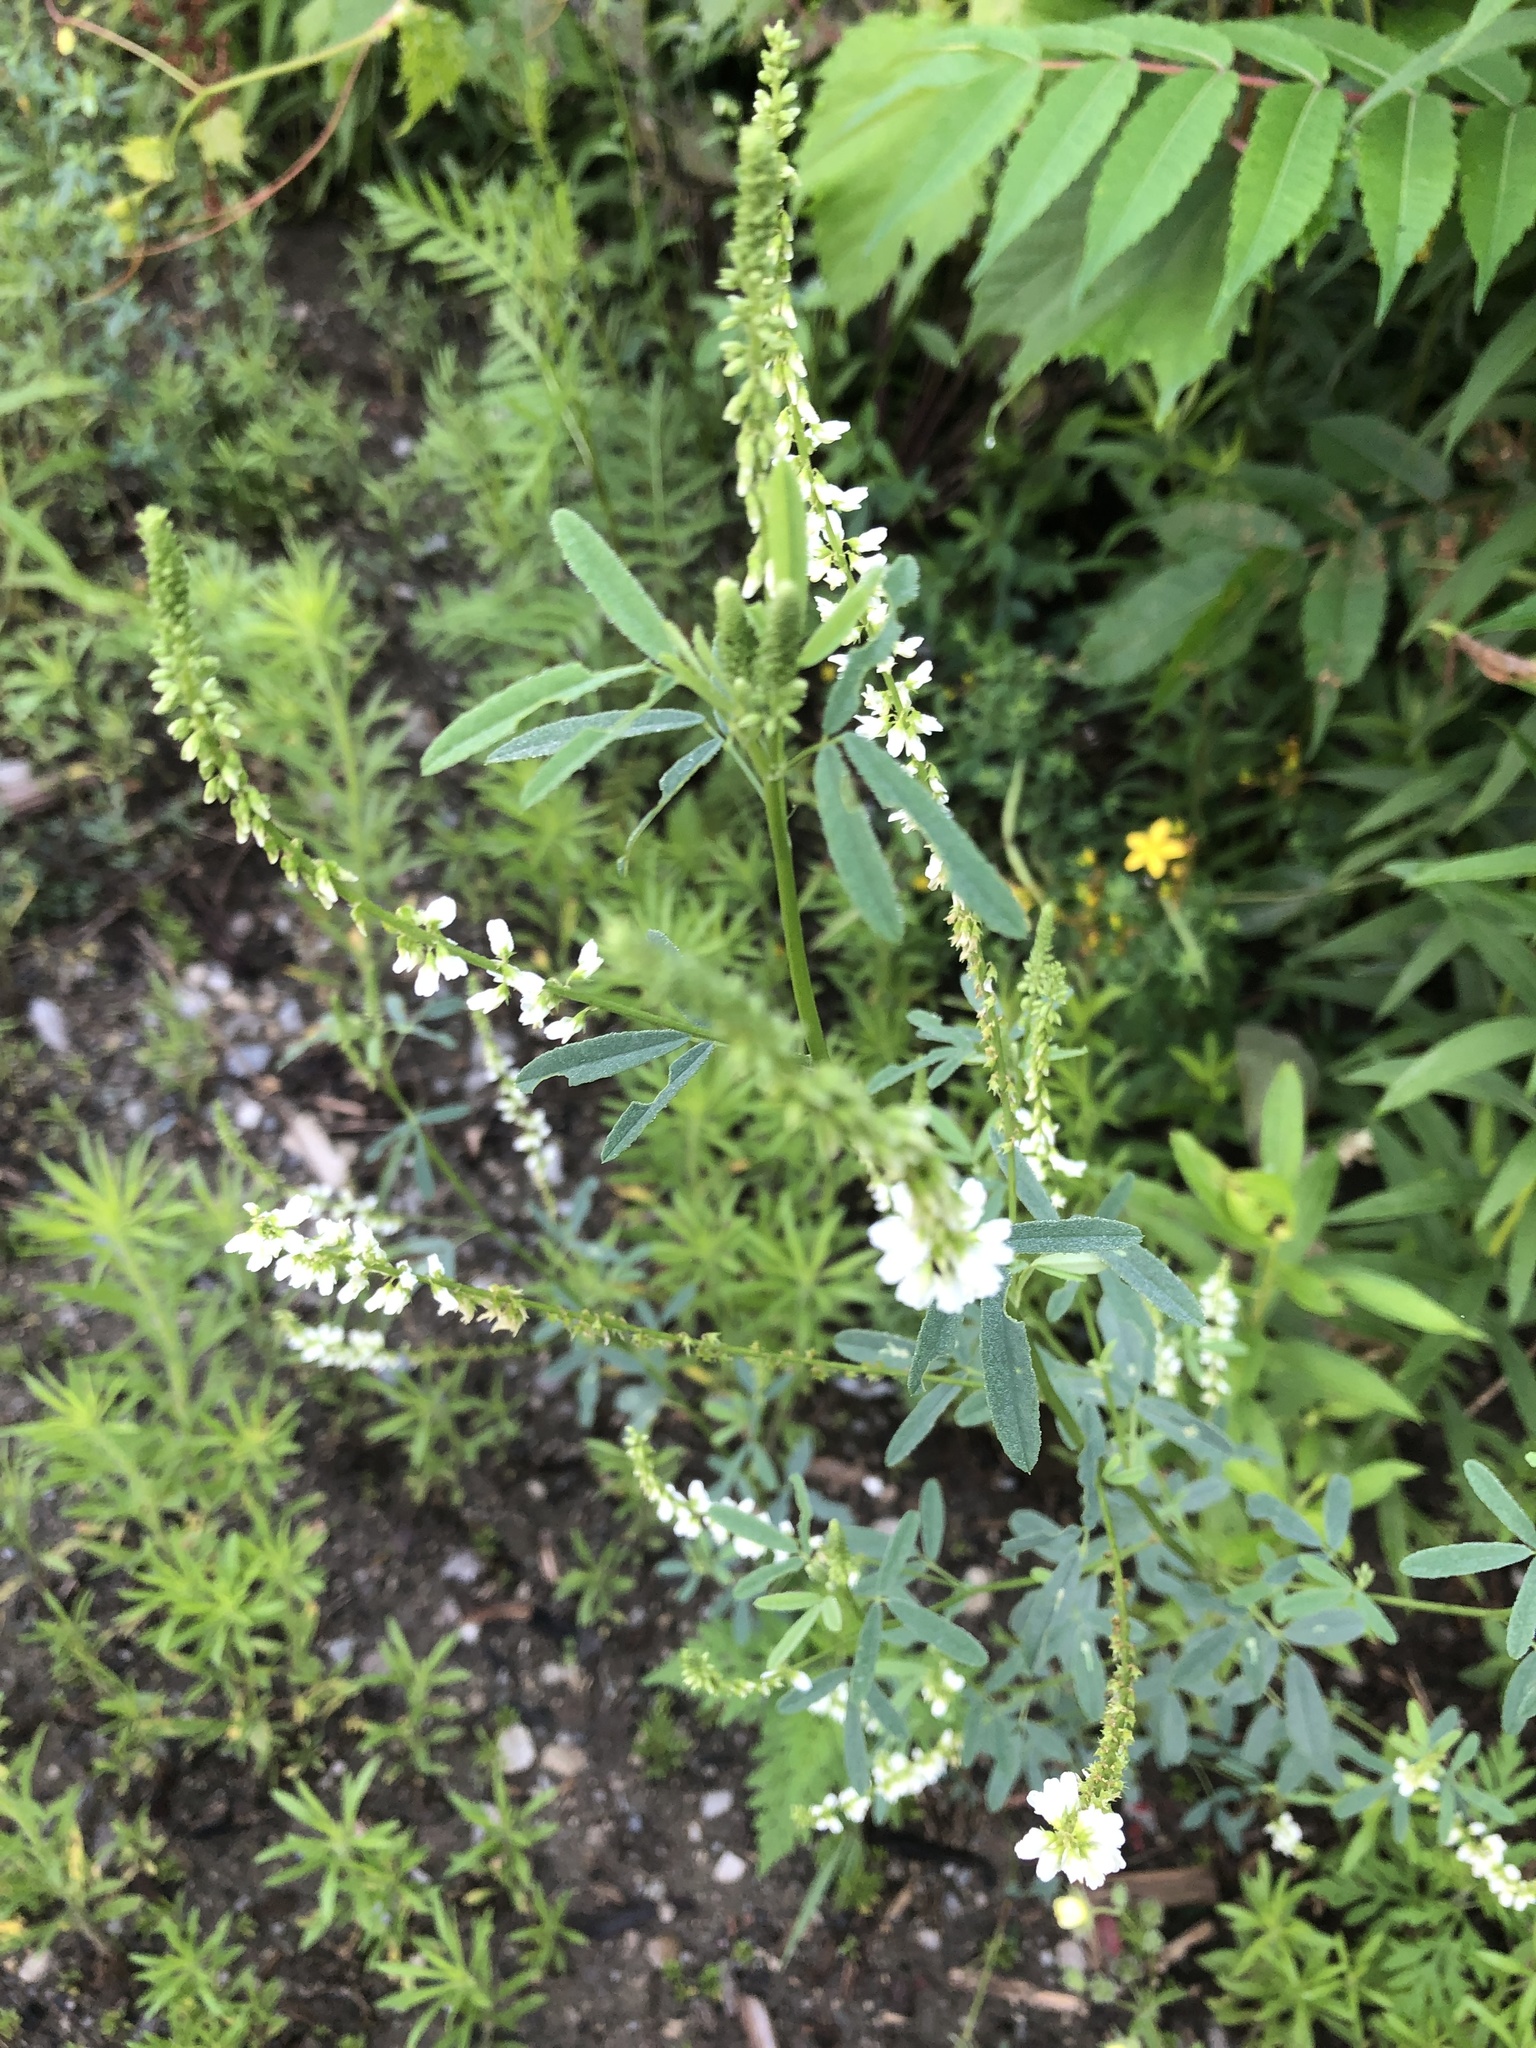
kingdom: Plantae
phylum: Tracheophyta
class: Magnoliopsida
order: Fabales
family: Fabaceae
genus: Melilotus
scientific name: Melilotus albus
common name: White melilot
